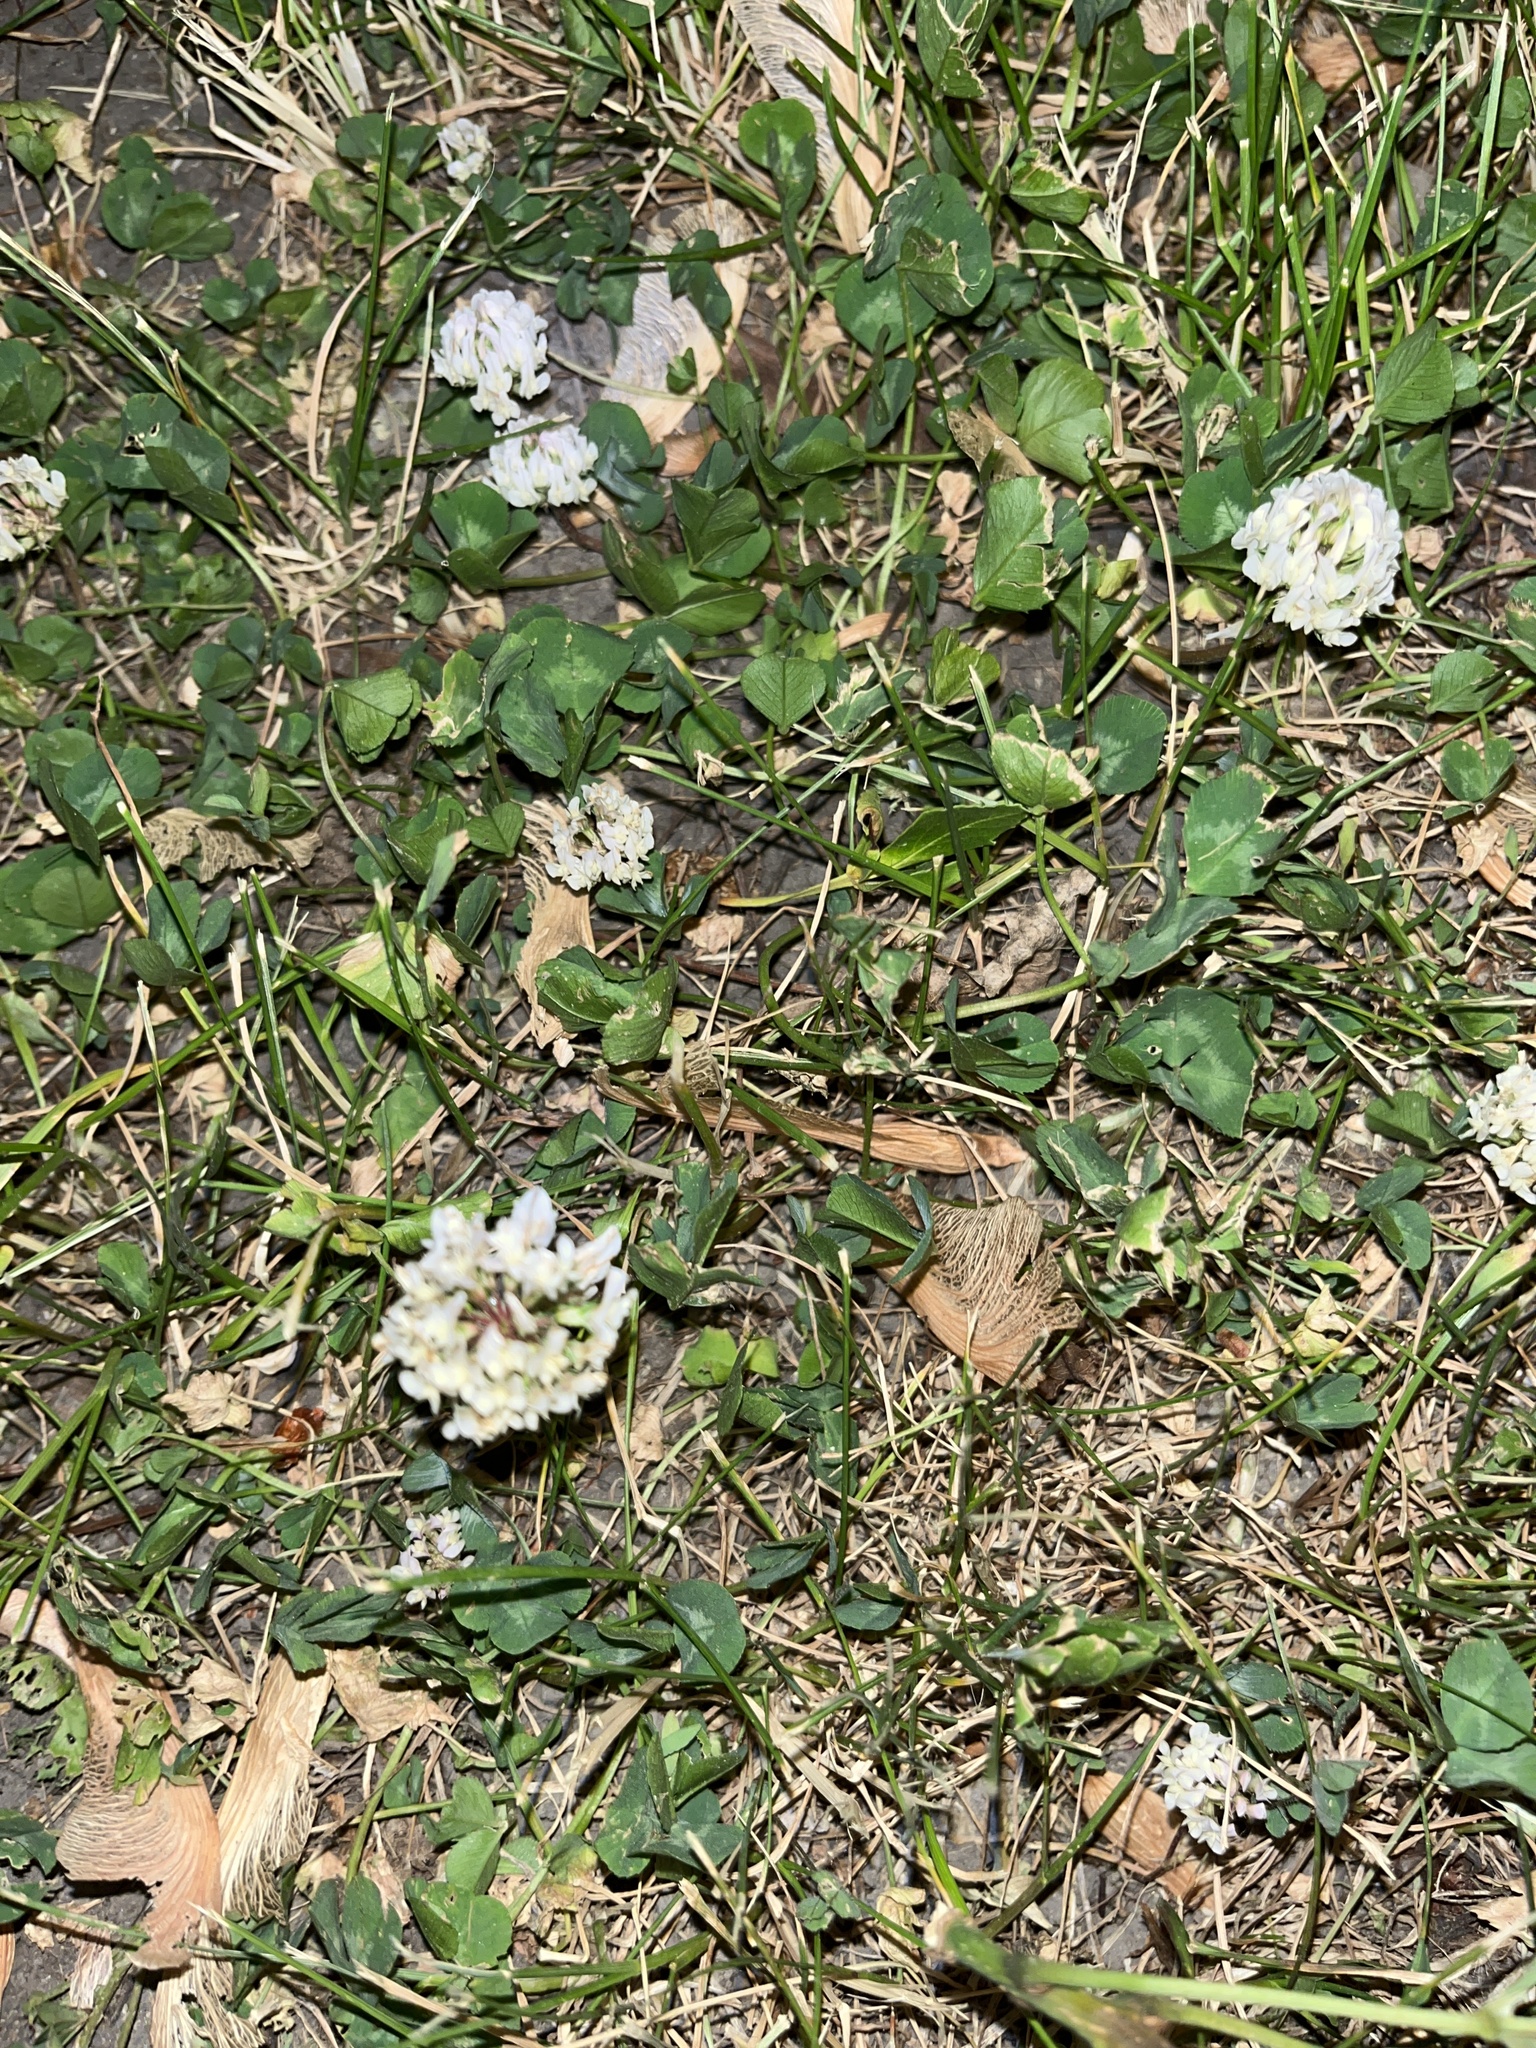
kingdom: Plantae
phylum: Tracheophyta
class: Magnoliopsida
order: Fabales
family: Fabaceae
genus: Trifolium
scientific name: Trifolium repens
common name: White clover
